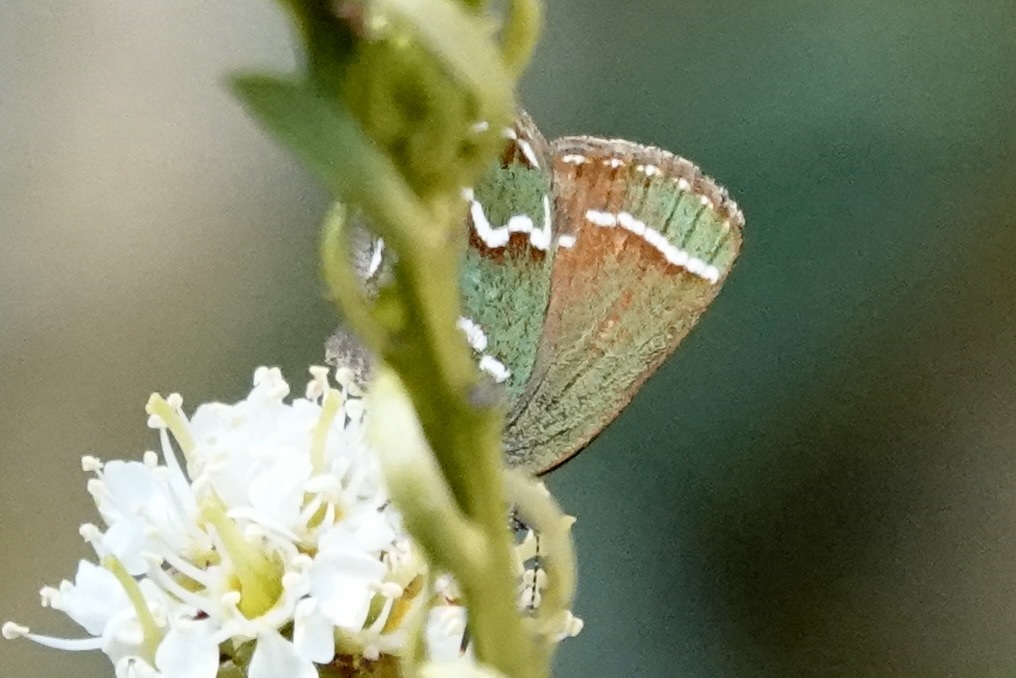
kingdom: Animalia
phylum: Arthropoda
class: Insecta
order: Lepidoptera
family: Lycaenidae
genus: Mitoura
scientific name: Mitoura gryneus
